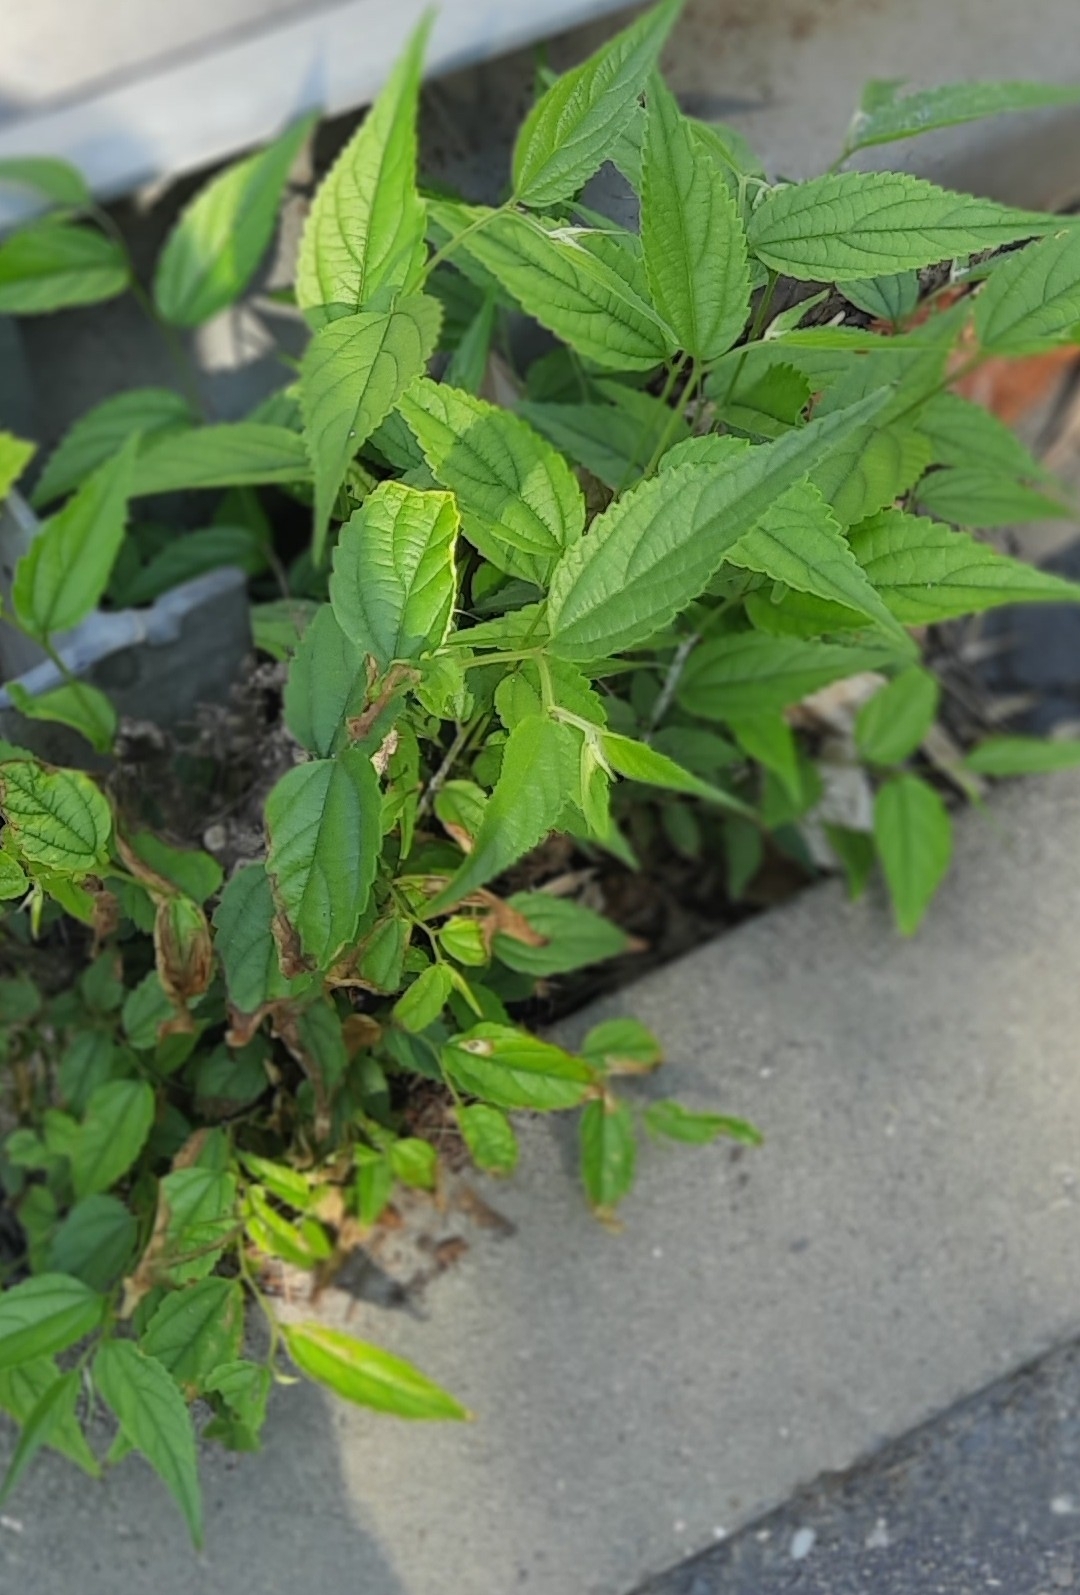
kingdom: Plantae
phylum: Tracheophyta
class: Magnoliopsida
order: Malpighiales
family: Euphorbiaceae
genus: Acalypha
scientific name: Acalypha australis
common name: Asian copperleaf
